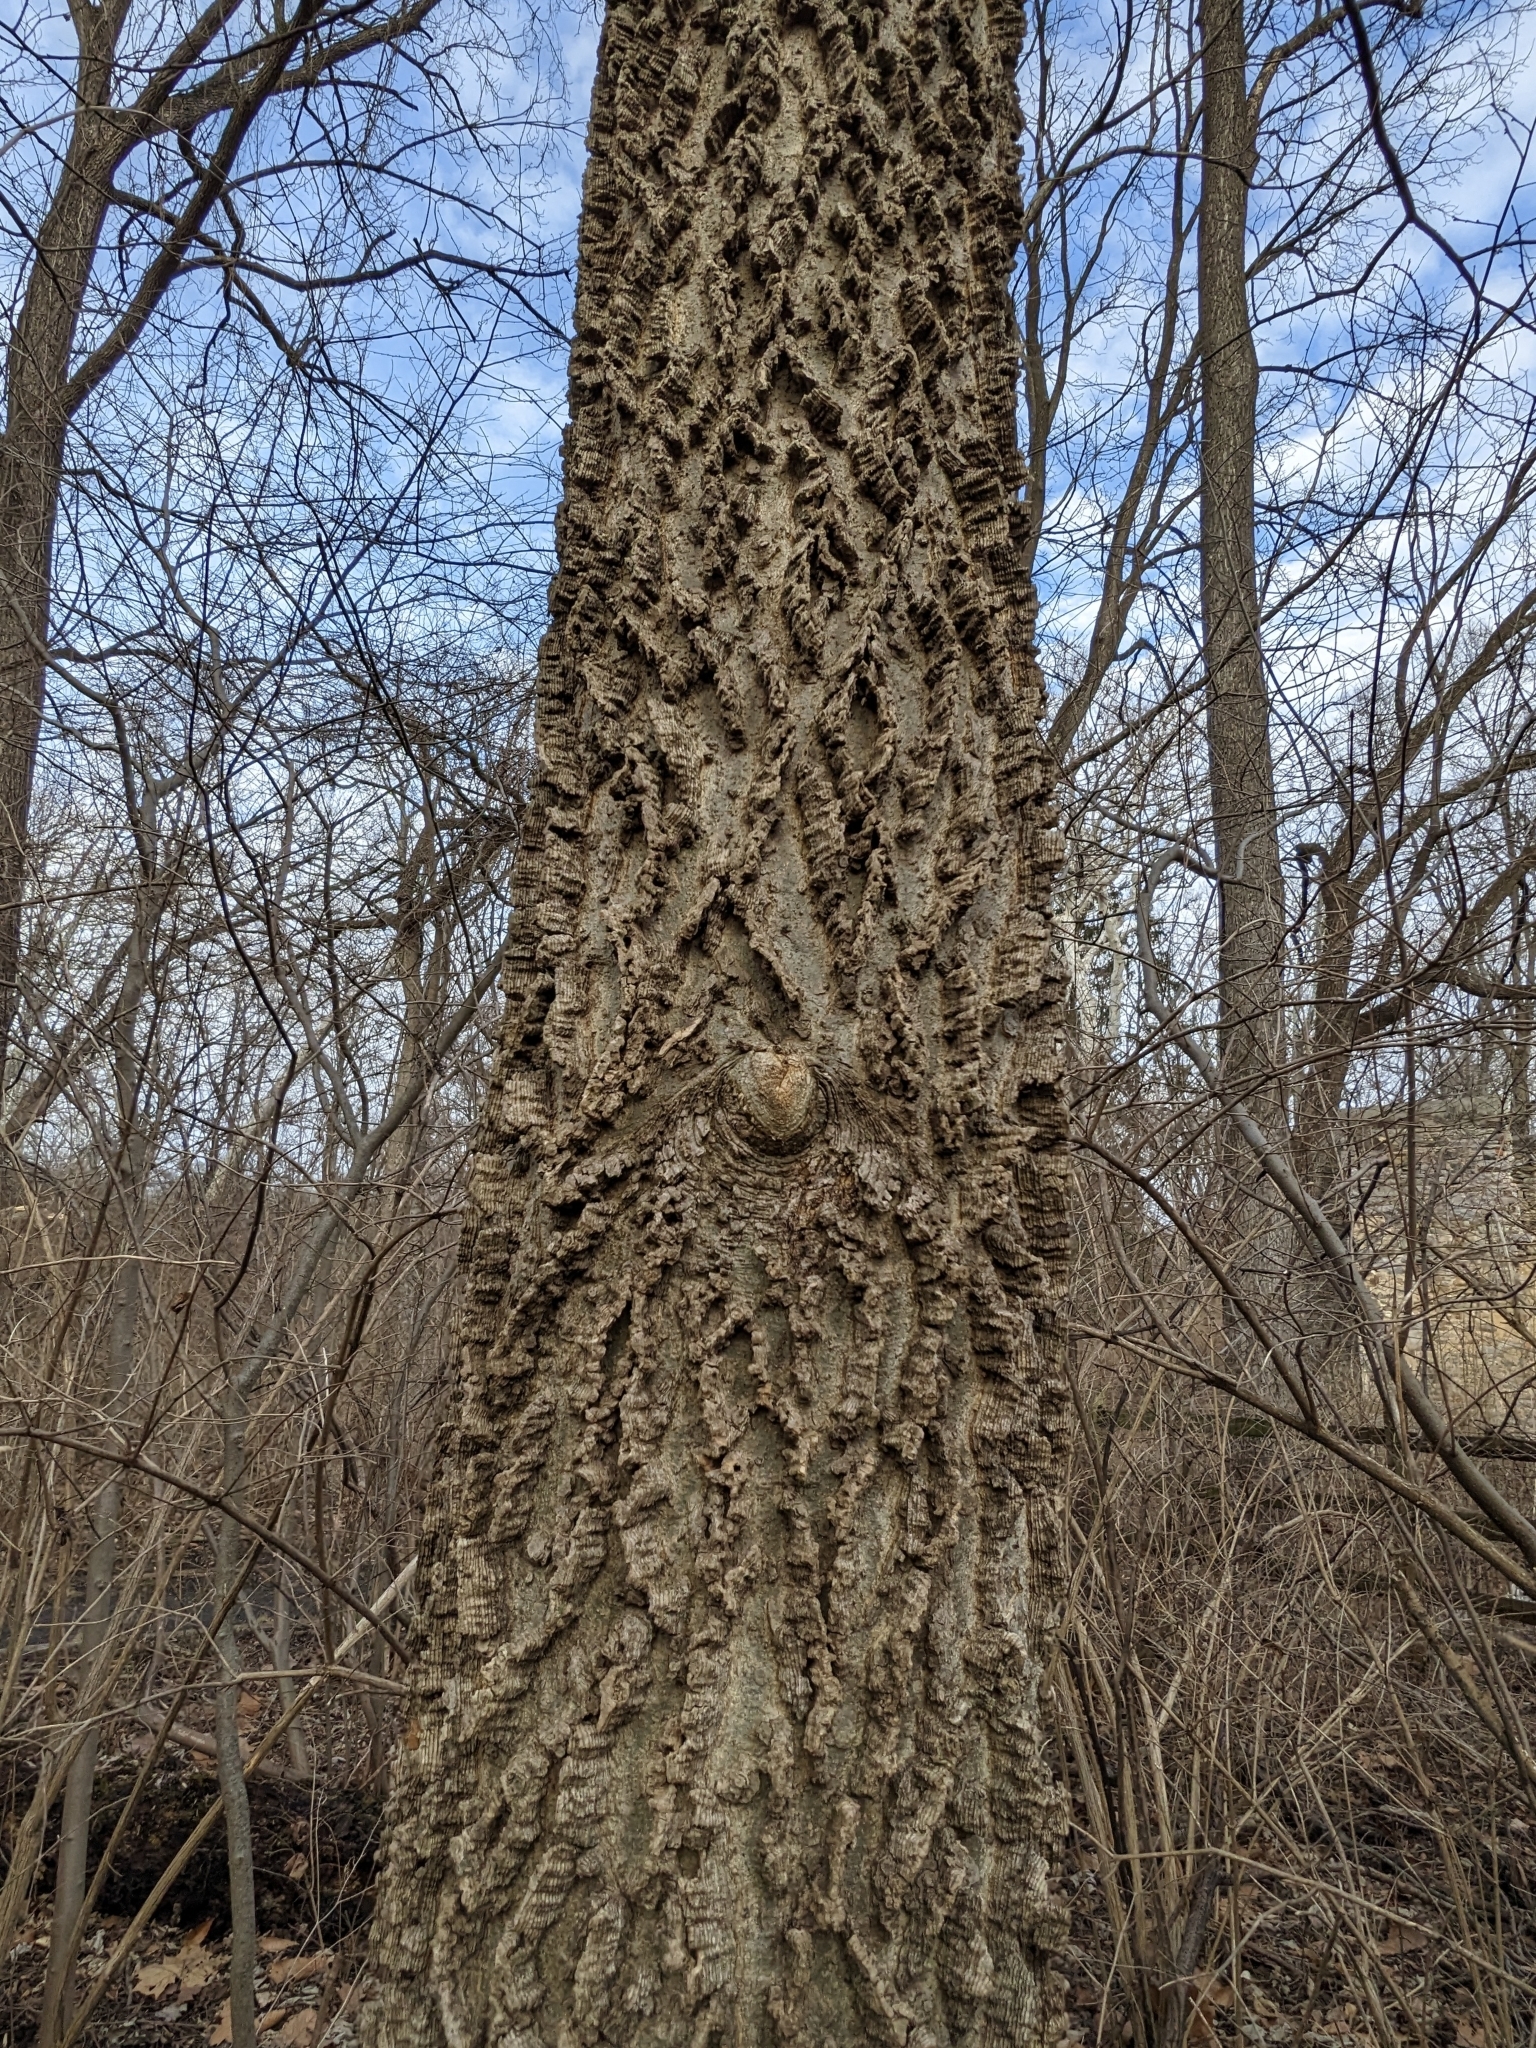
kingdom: Plantae
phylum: Tracheophyta
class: Magnoliopsida
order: Rosales
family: Cannabaceae
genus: Celtis
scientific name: Celtis occidentalis
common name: Common hackberry
